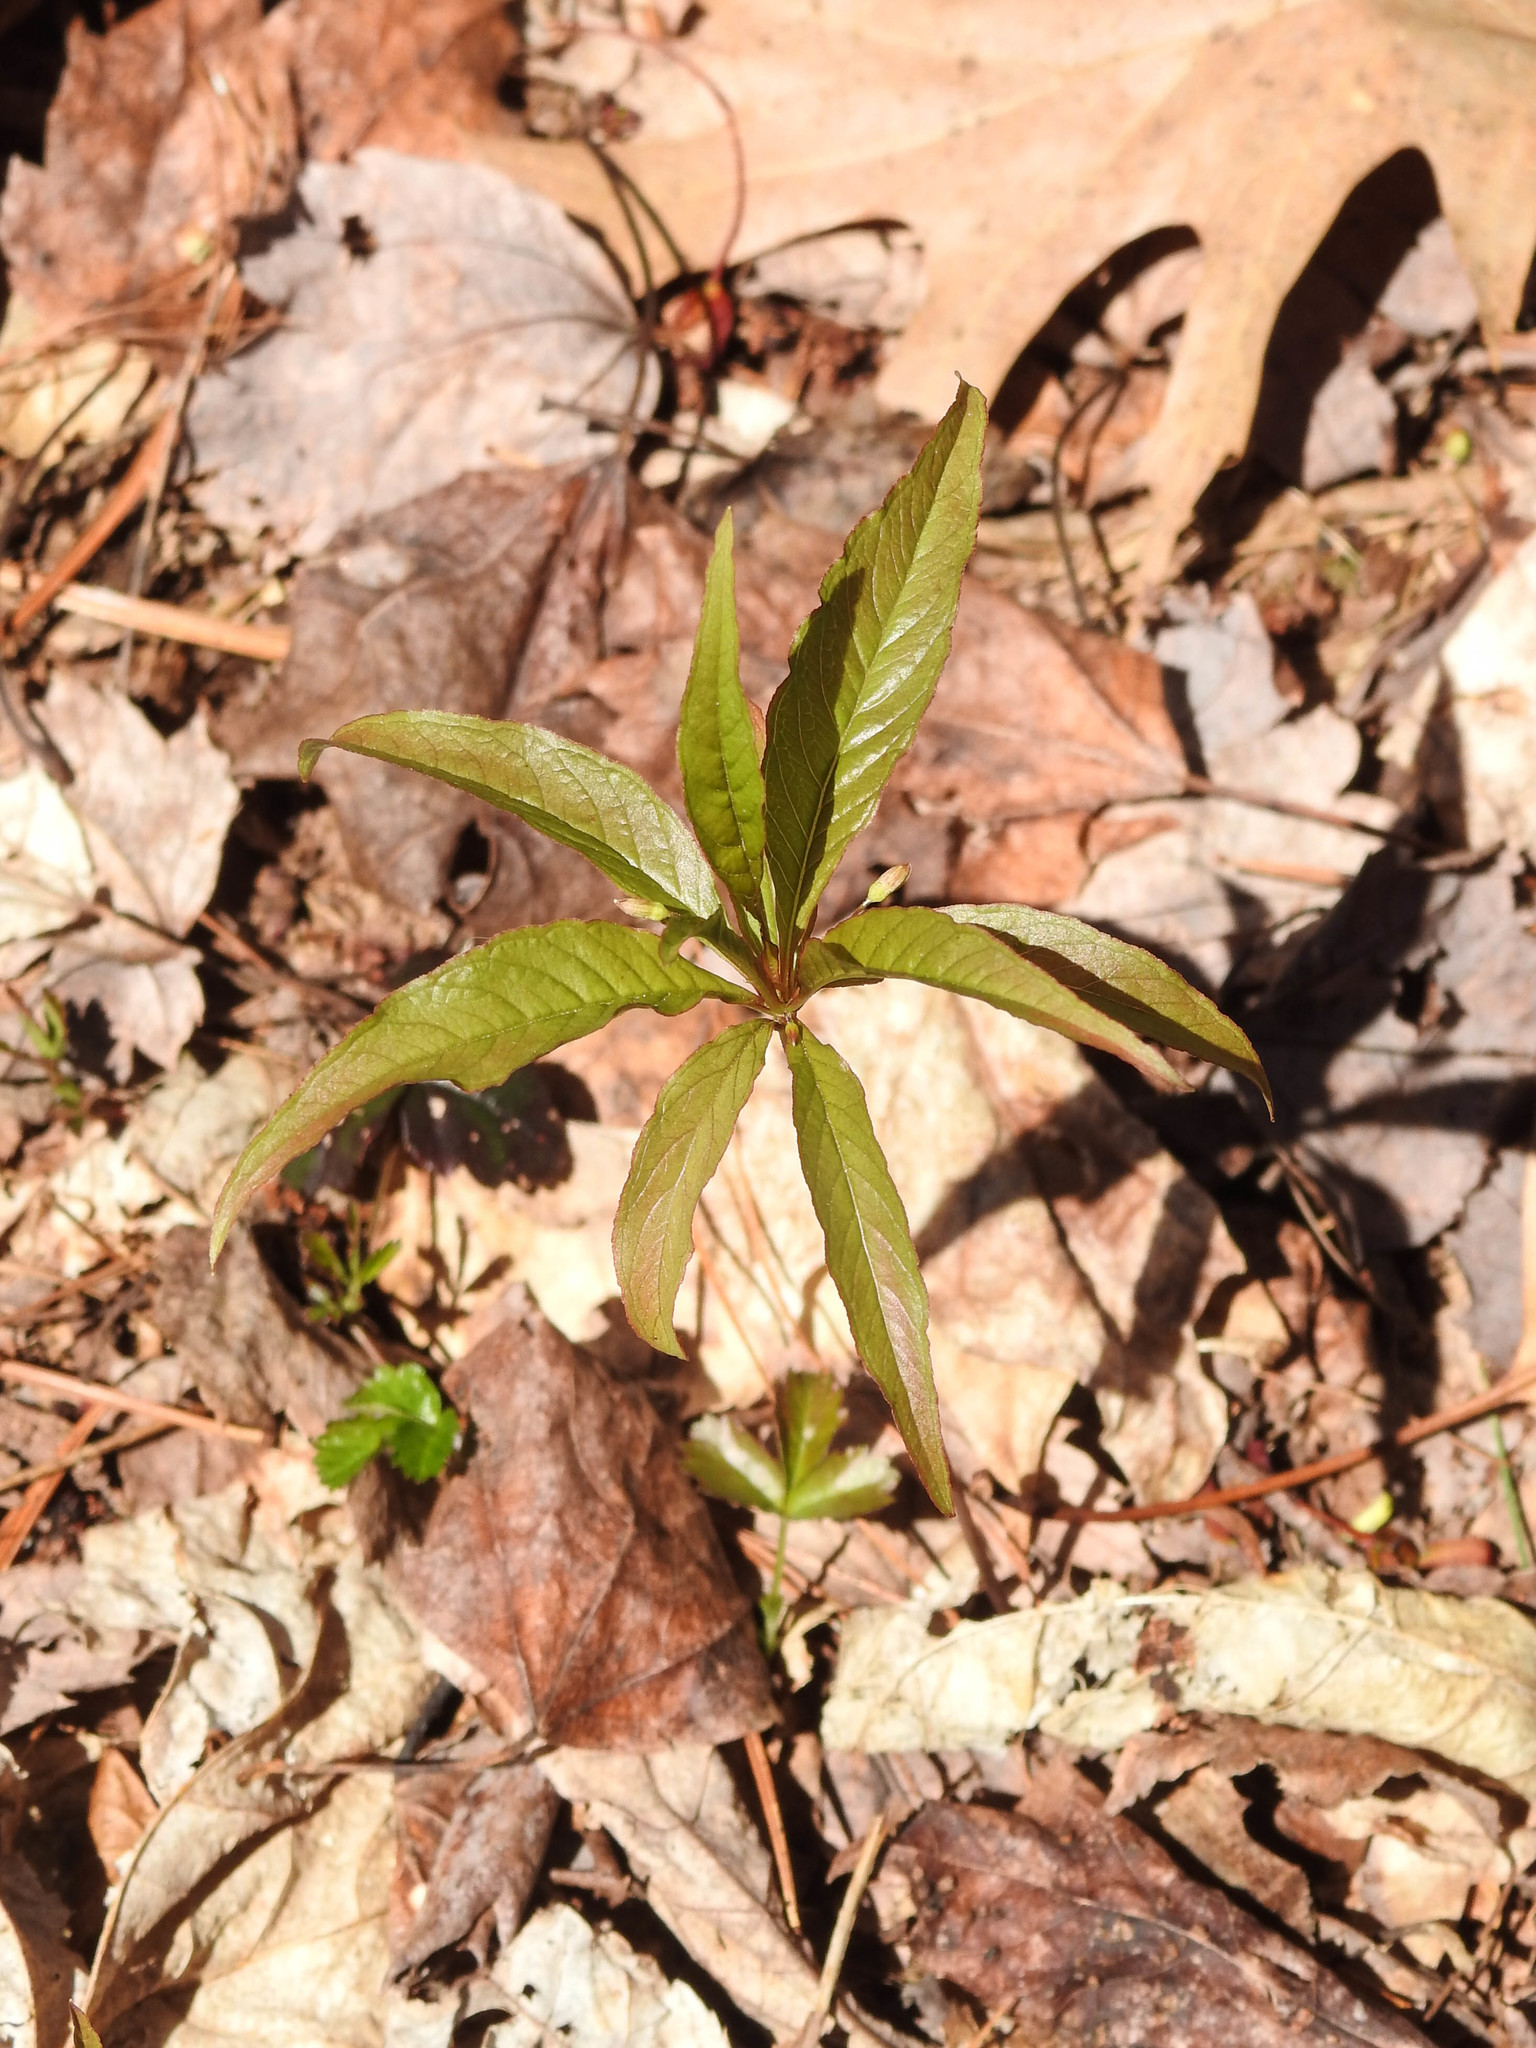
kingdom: Plantae
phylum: Tracheophyta
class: Magnoliopsida
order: Ericales
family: Primulaceae
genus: Lysimachia
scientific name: Lysimachia borealis
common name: American starflower
